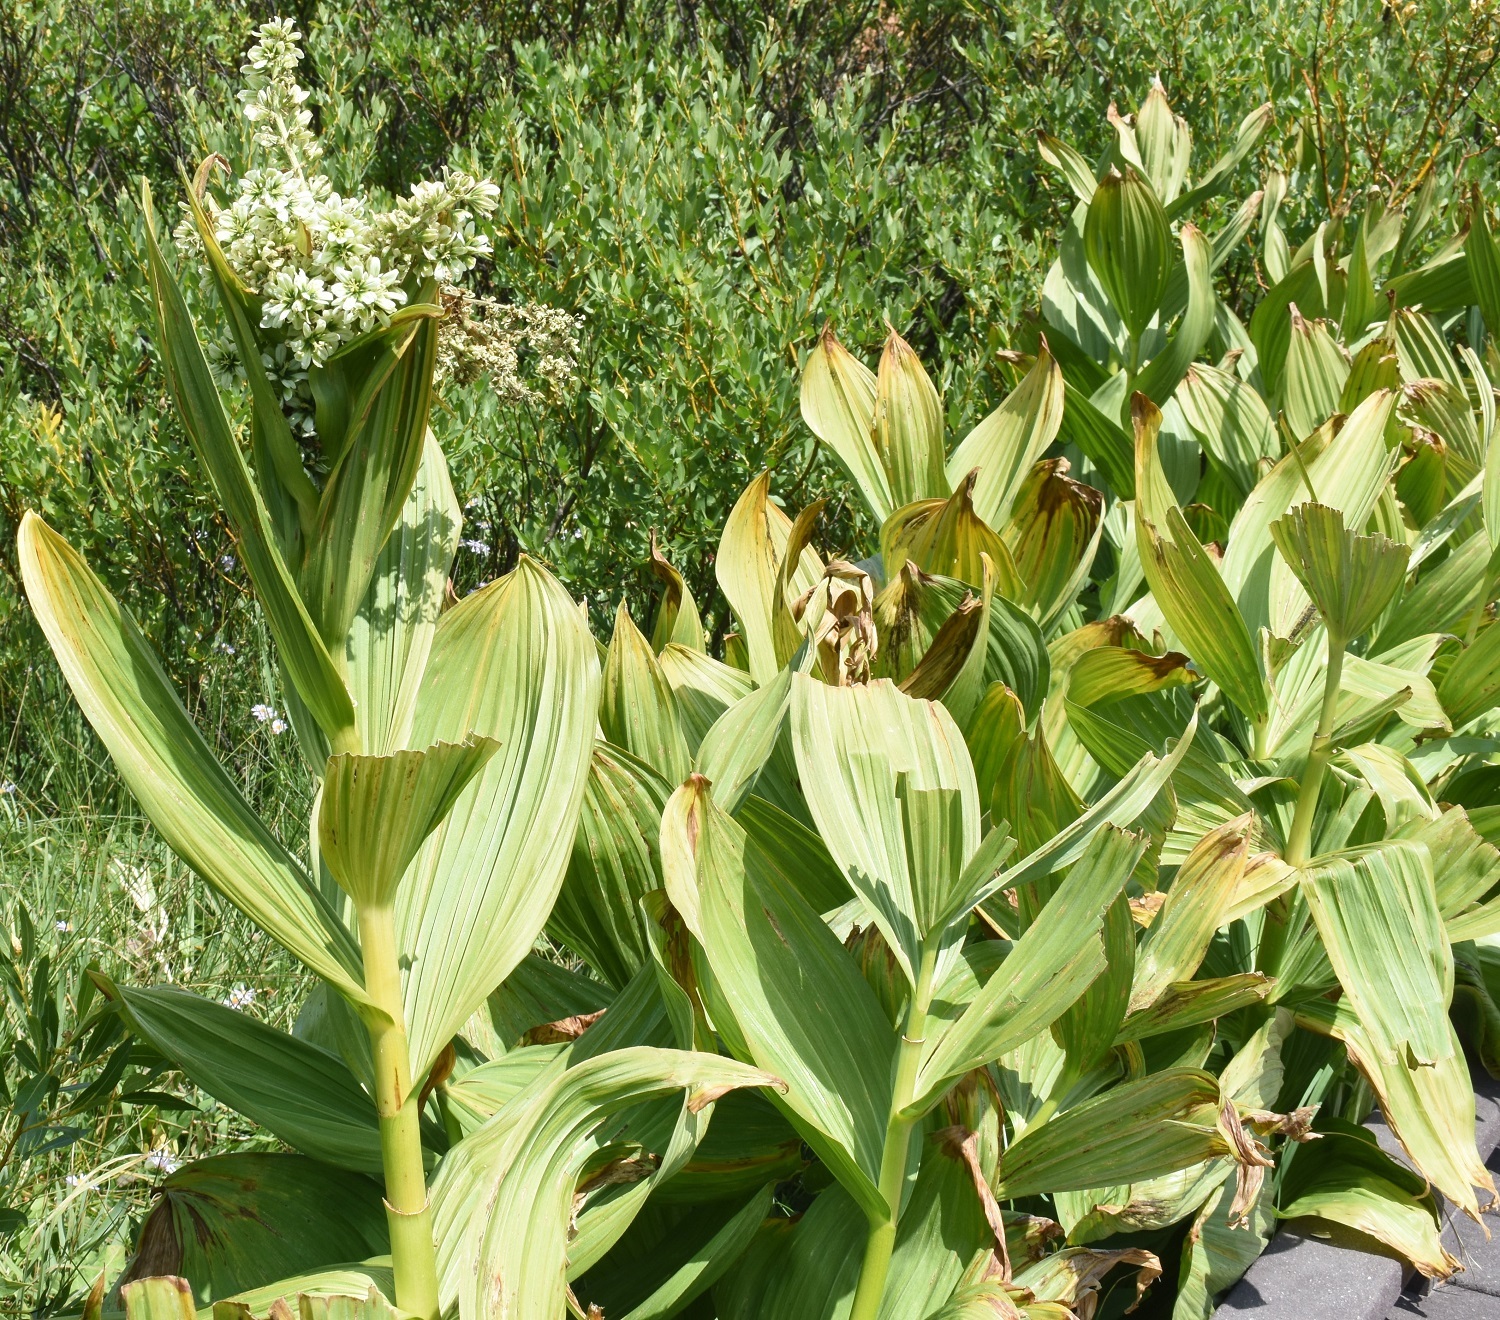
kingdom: Plantae
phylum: Tracheophyta
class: Liliopsida
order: Liliales
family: Melanthiaceae
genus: Veratrum
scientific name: Veratrum californicum
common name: California veratrum
